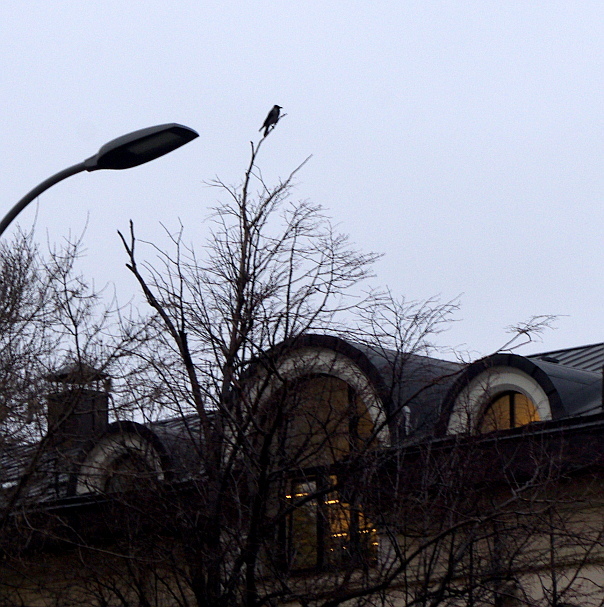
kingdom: Animalia
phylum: Chordata
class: Aves
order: Passeriformes
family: Corvidae
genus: Corvus
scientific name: Corvus cornix
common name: Hooded crow
